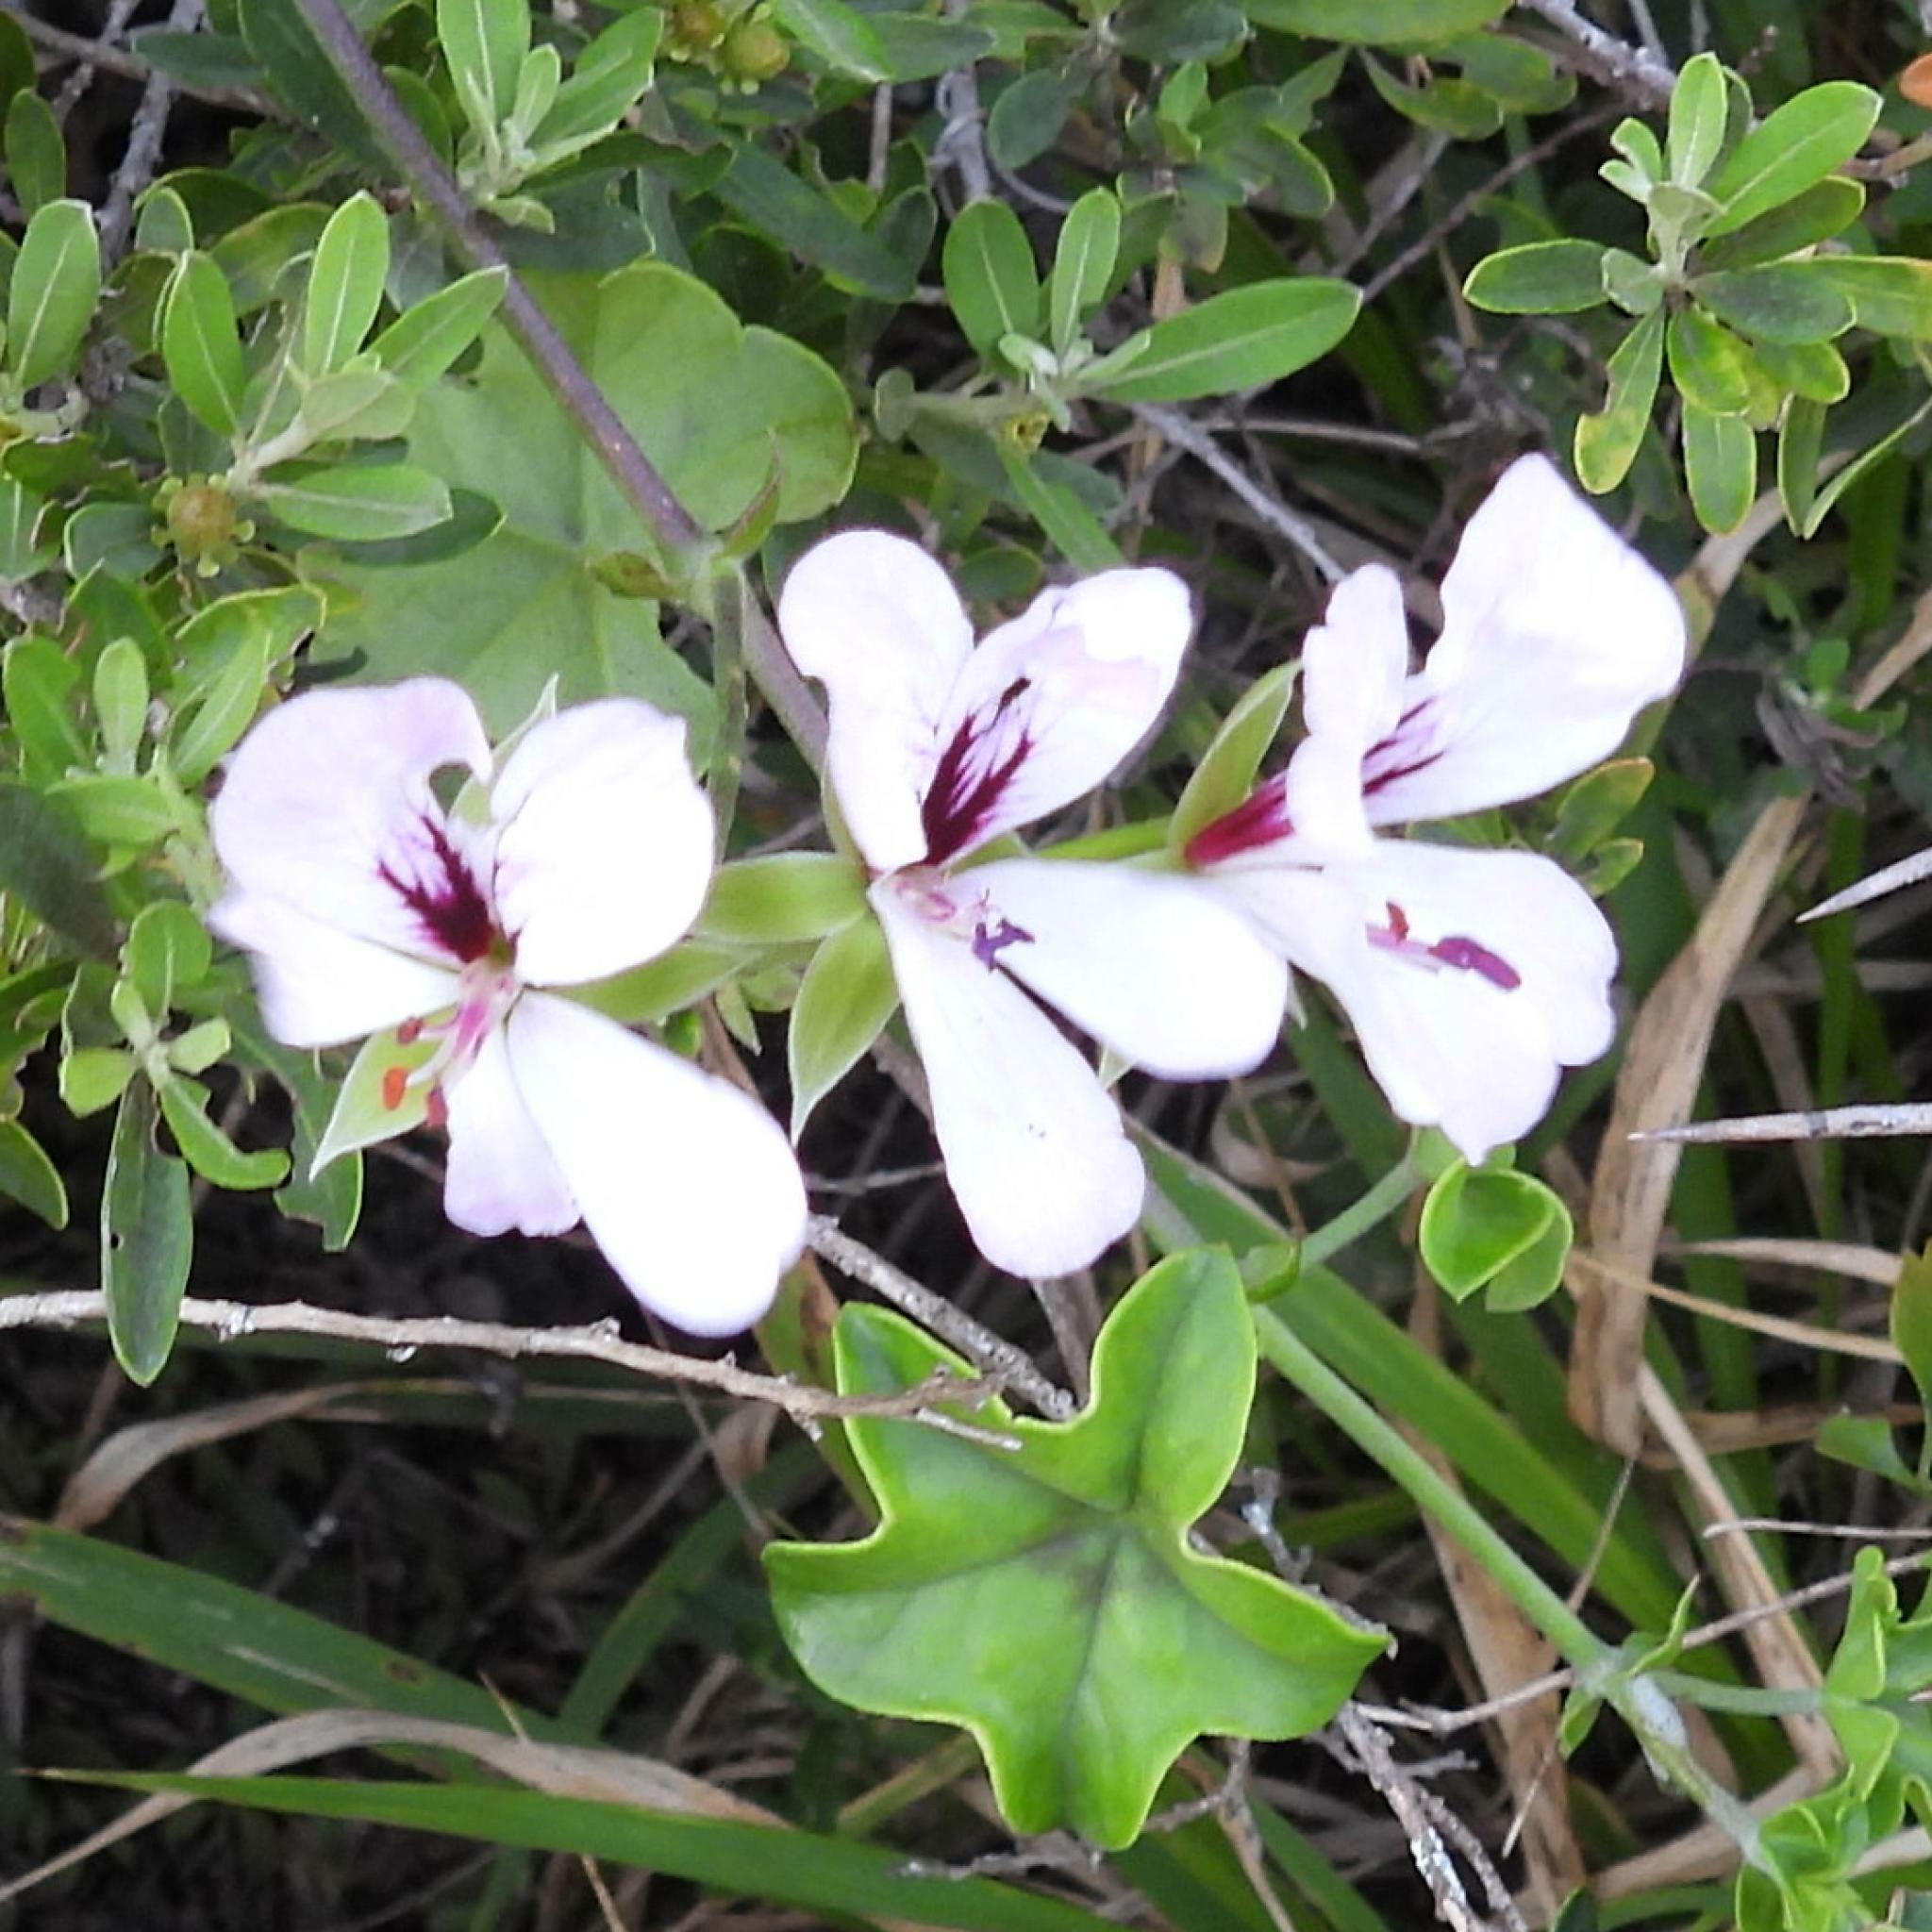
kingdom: Plantae
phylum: Tracheophyta
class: Magnoliopsida
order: Geraniales
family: Geraniaceae
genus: Pelargonium
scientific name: Pelargonium peltatum
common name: Ivyleaf geranium
